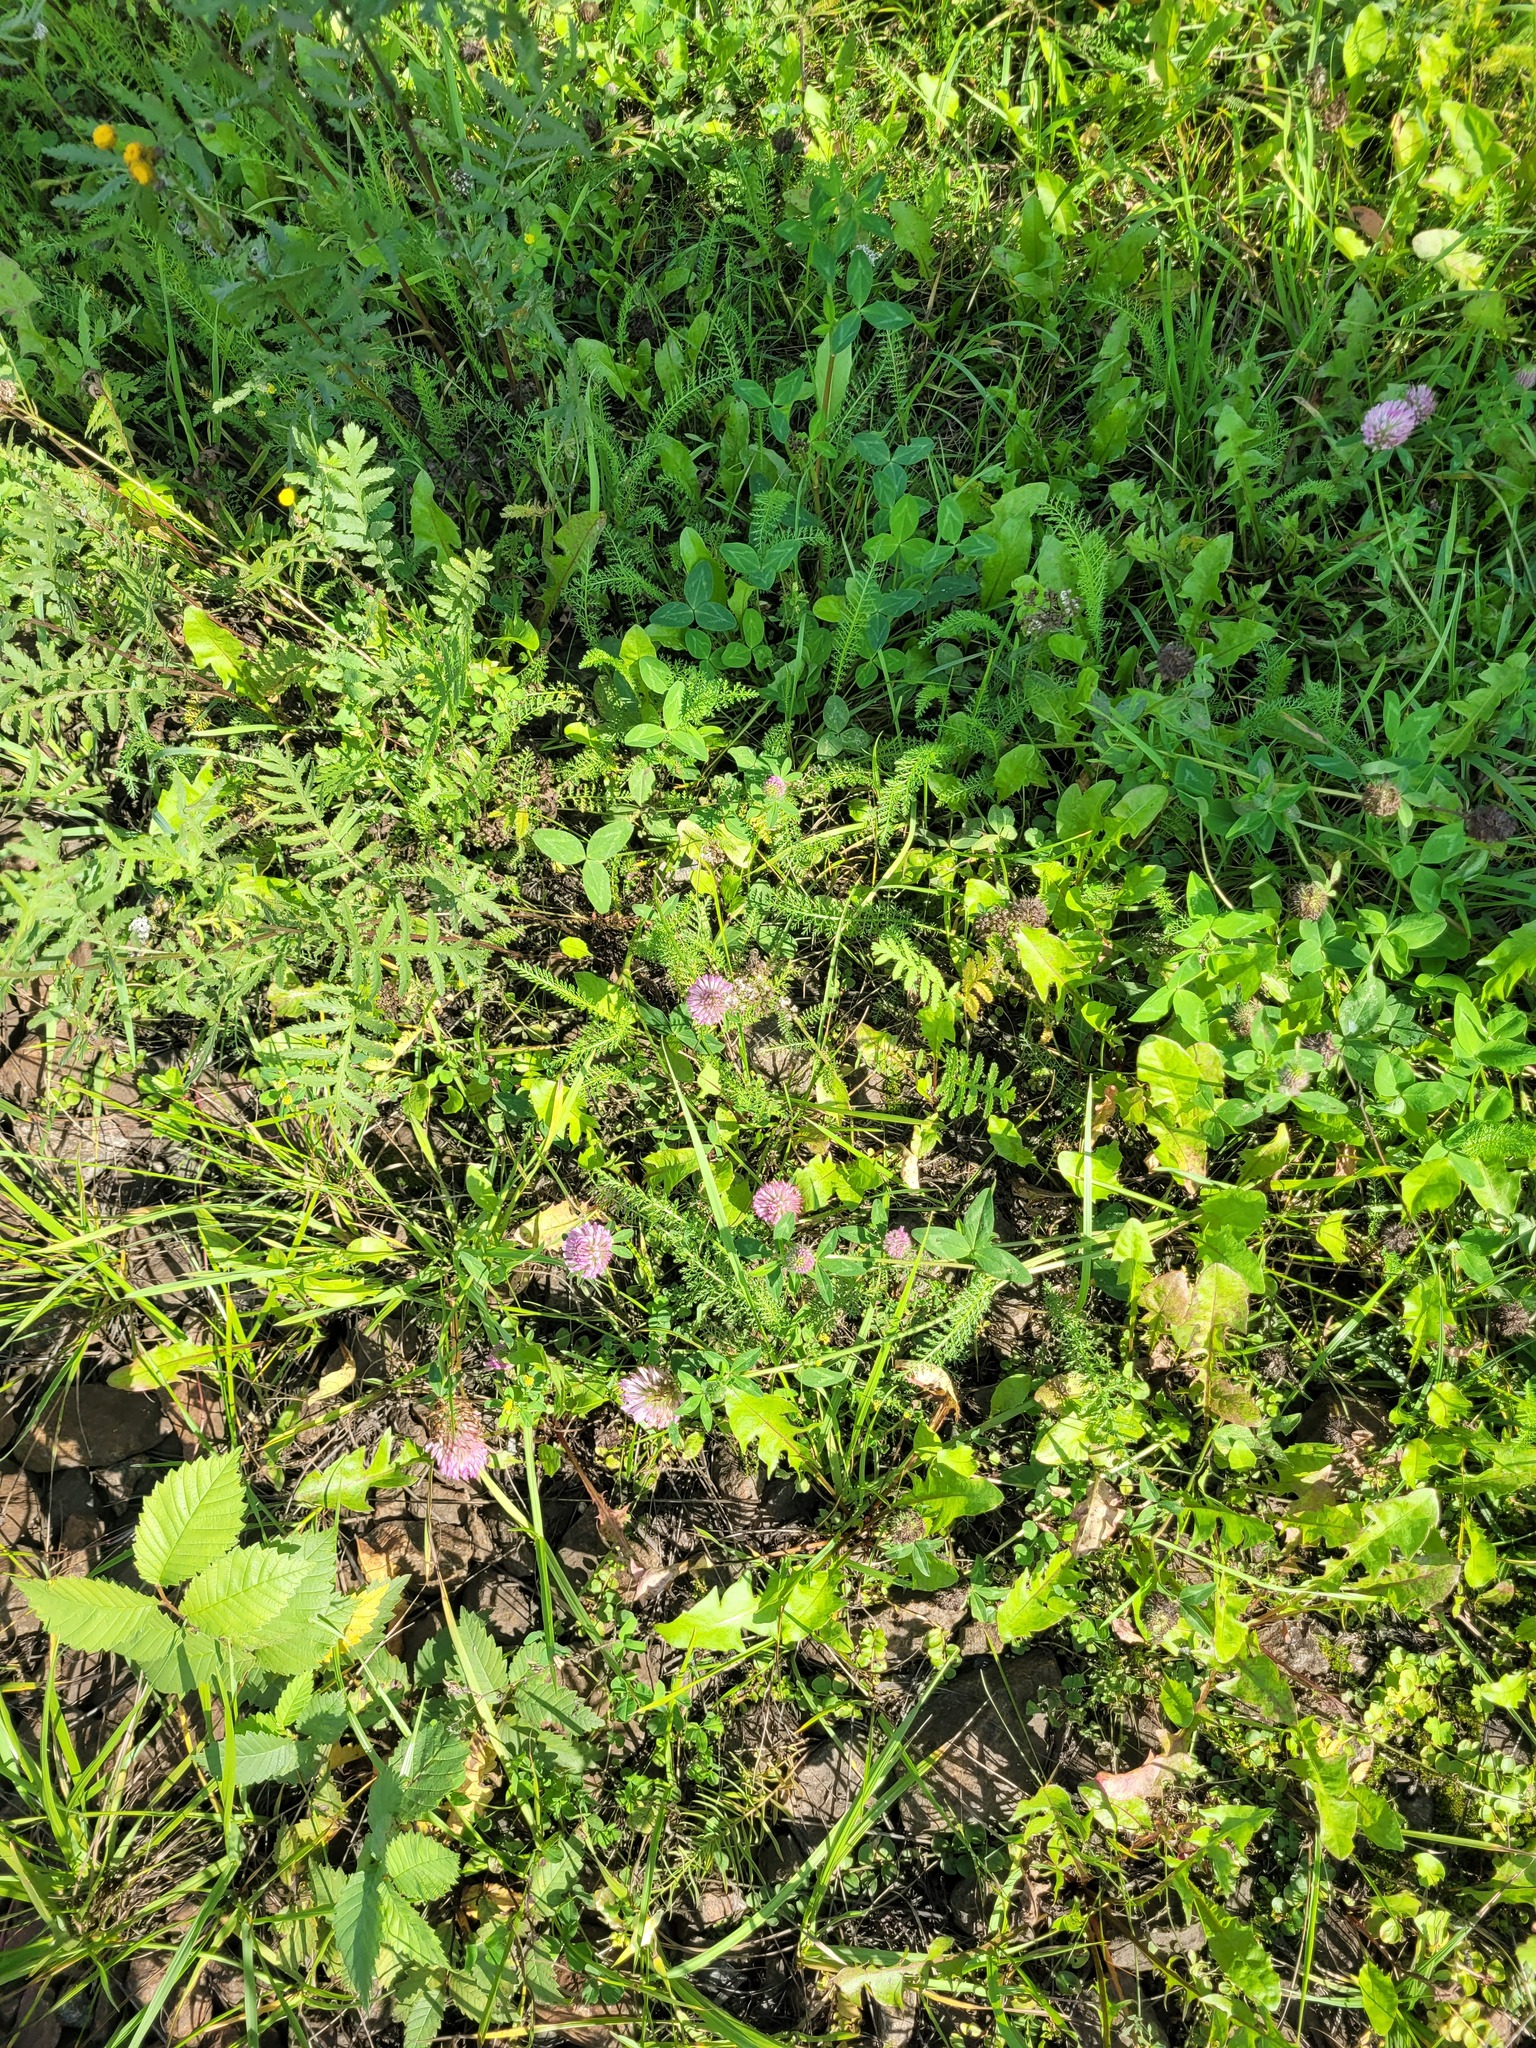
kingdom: Plantae
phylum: Tracheophyta
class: Magnoliopsida
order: Fabales
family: Fabaceae
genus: Trifolium
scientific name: Trifolium pratense
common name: Red clover
